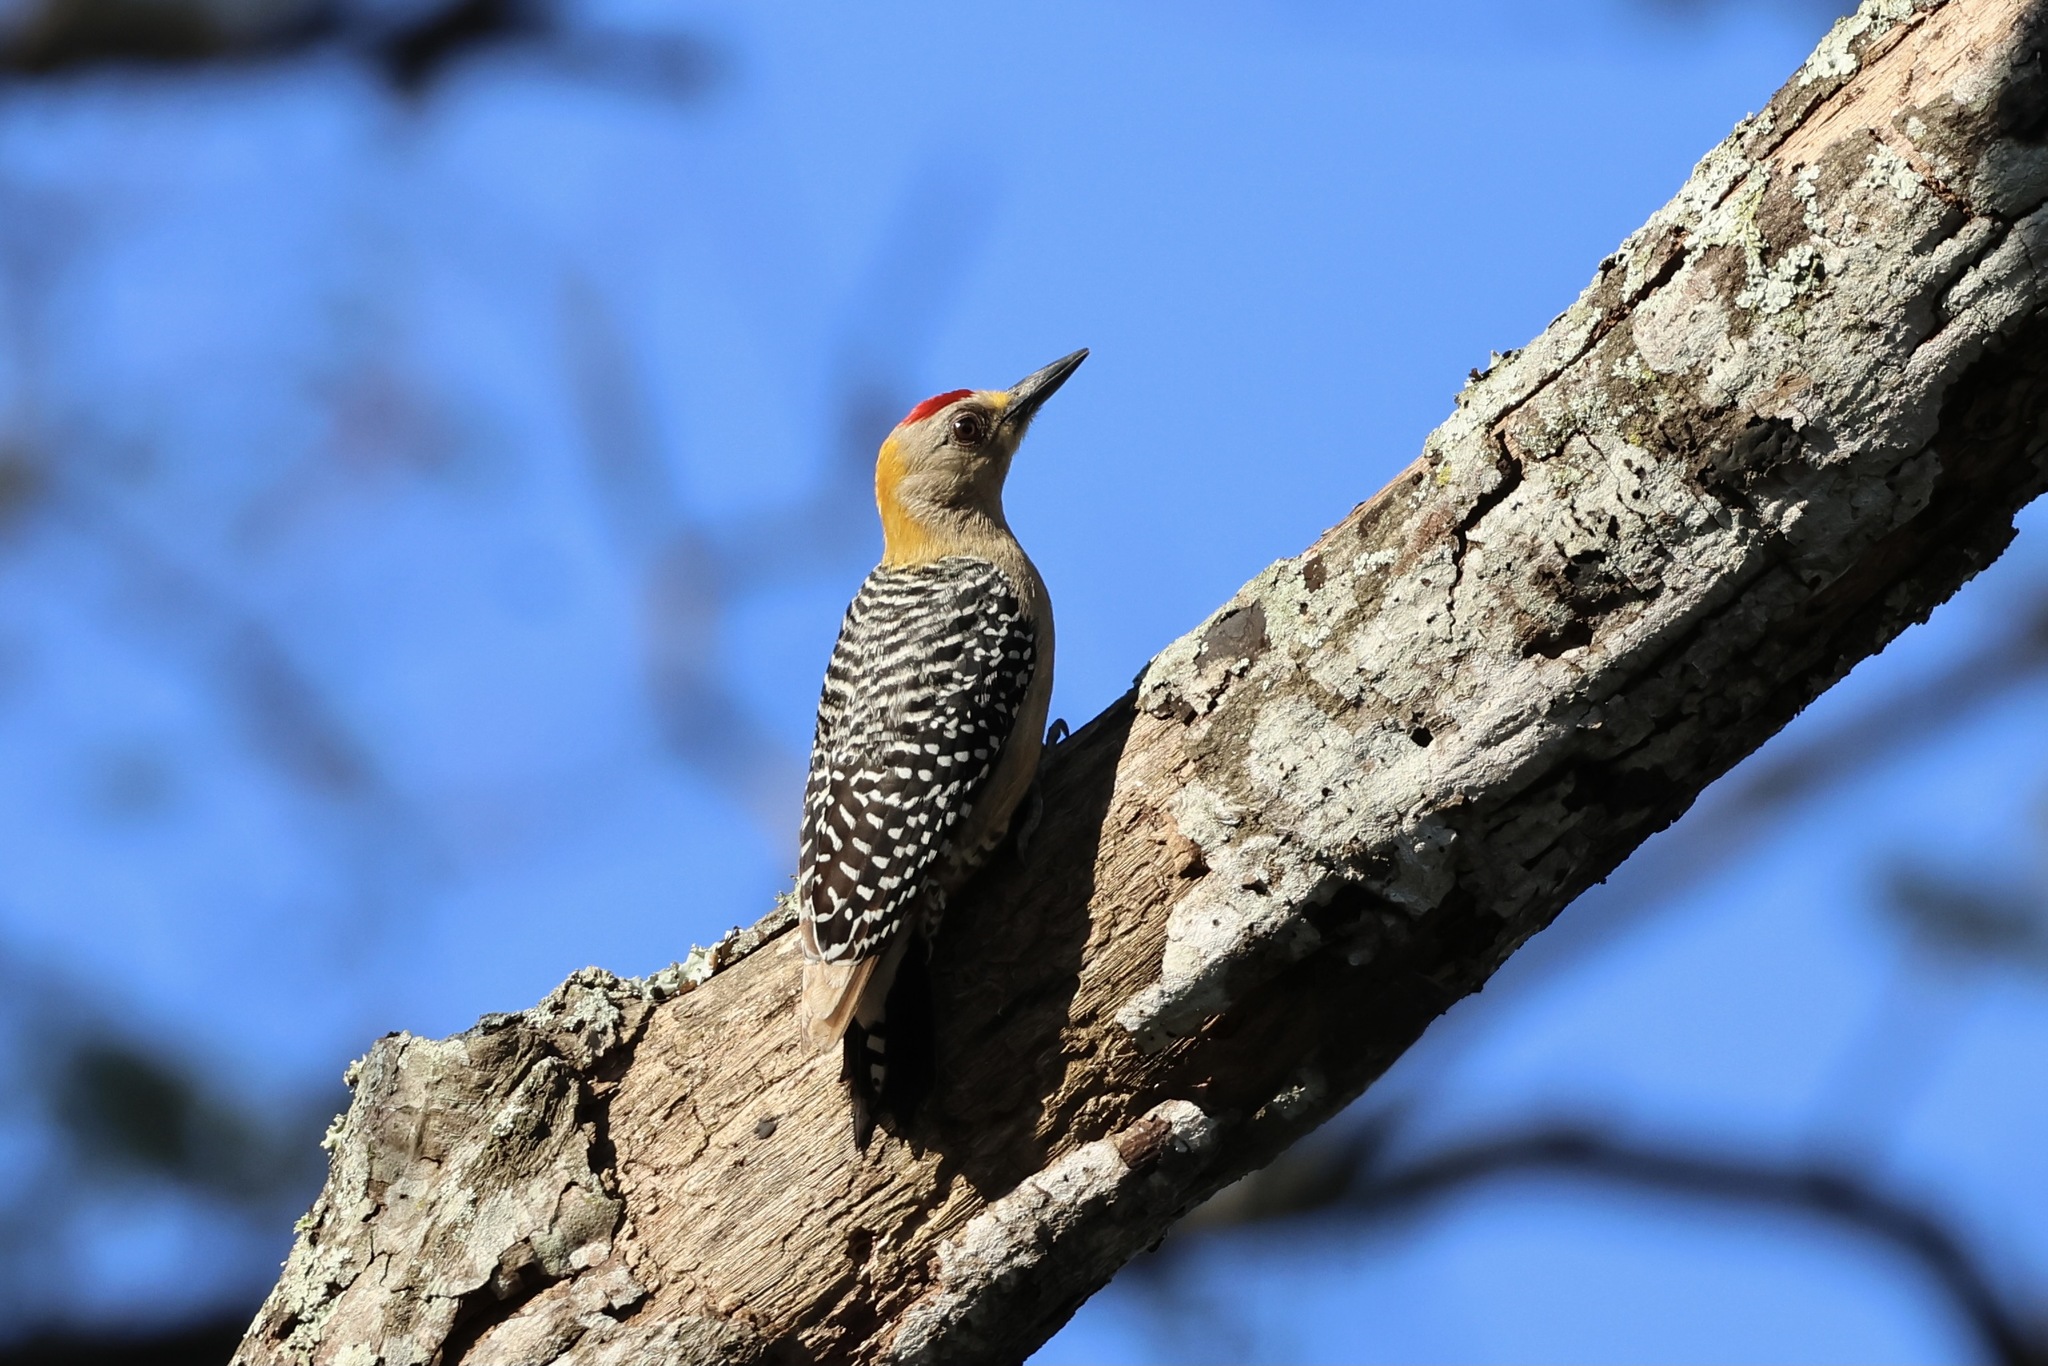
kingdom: Animalia
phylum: Chordata
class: Aves
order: Piciformes
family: Picidae
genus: Melanerpes
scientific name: Melanerpes hoffmannii
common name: Hoffmann's woodpecker
